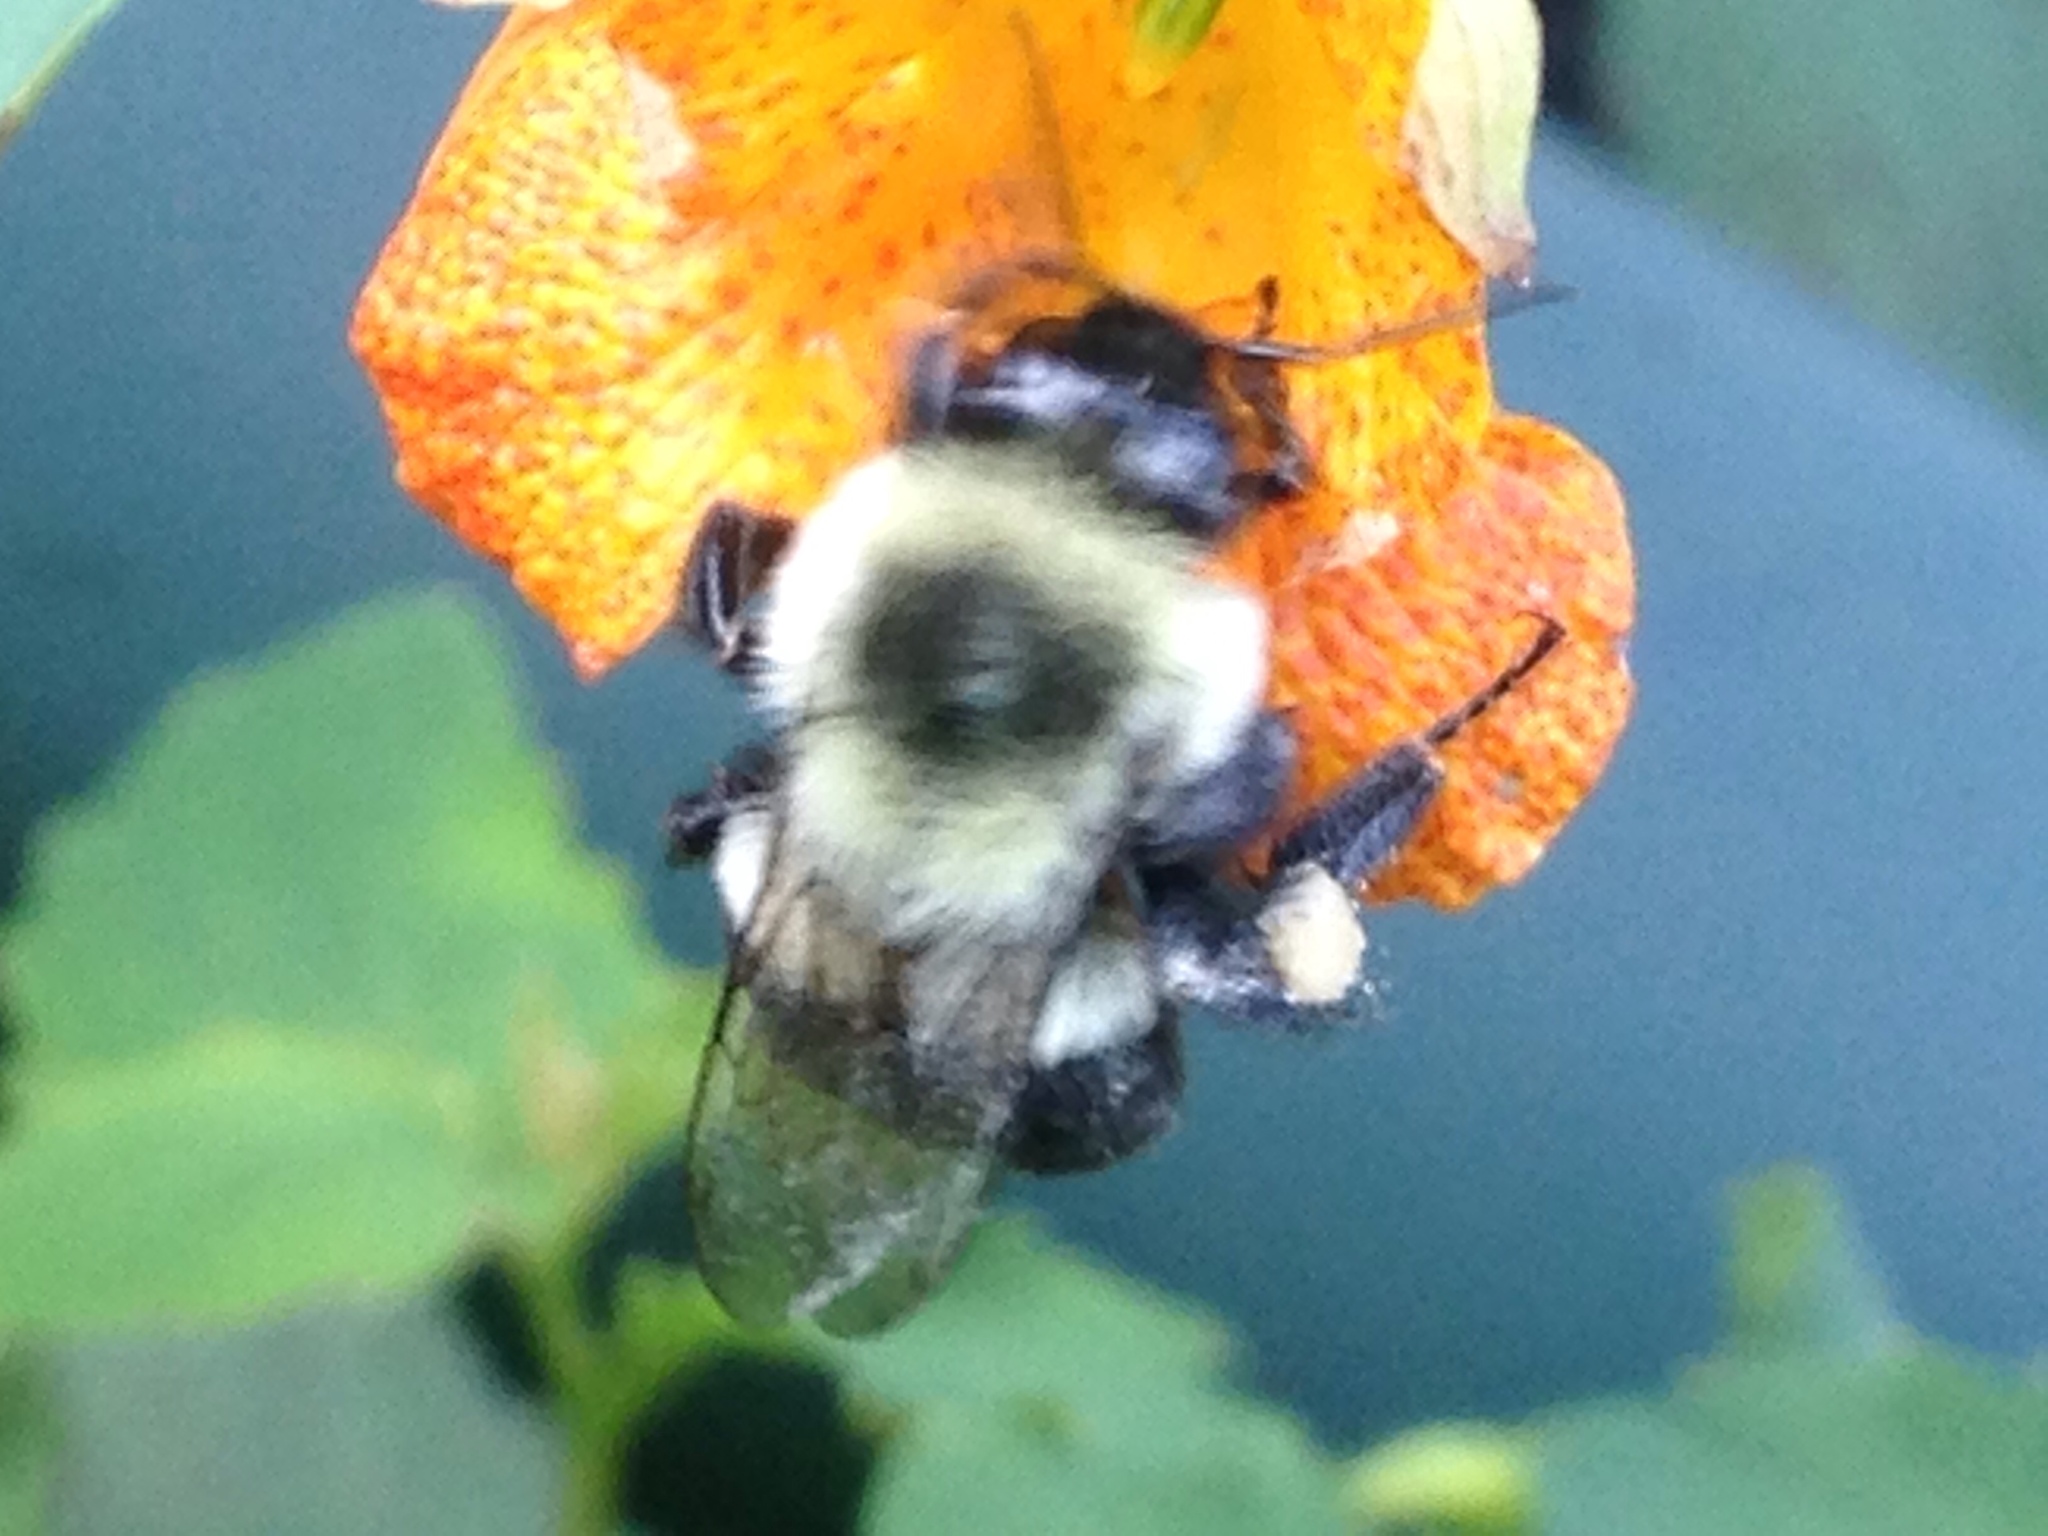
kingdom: Animalia
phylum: Arthropoda
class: Insecta
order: Hymenoptera
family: Apidae
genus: Bombus
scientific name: Bombus impatiens
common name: Common eastern bumble bee
